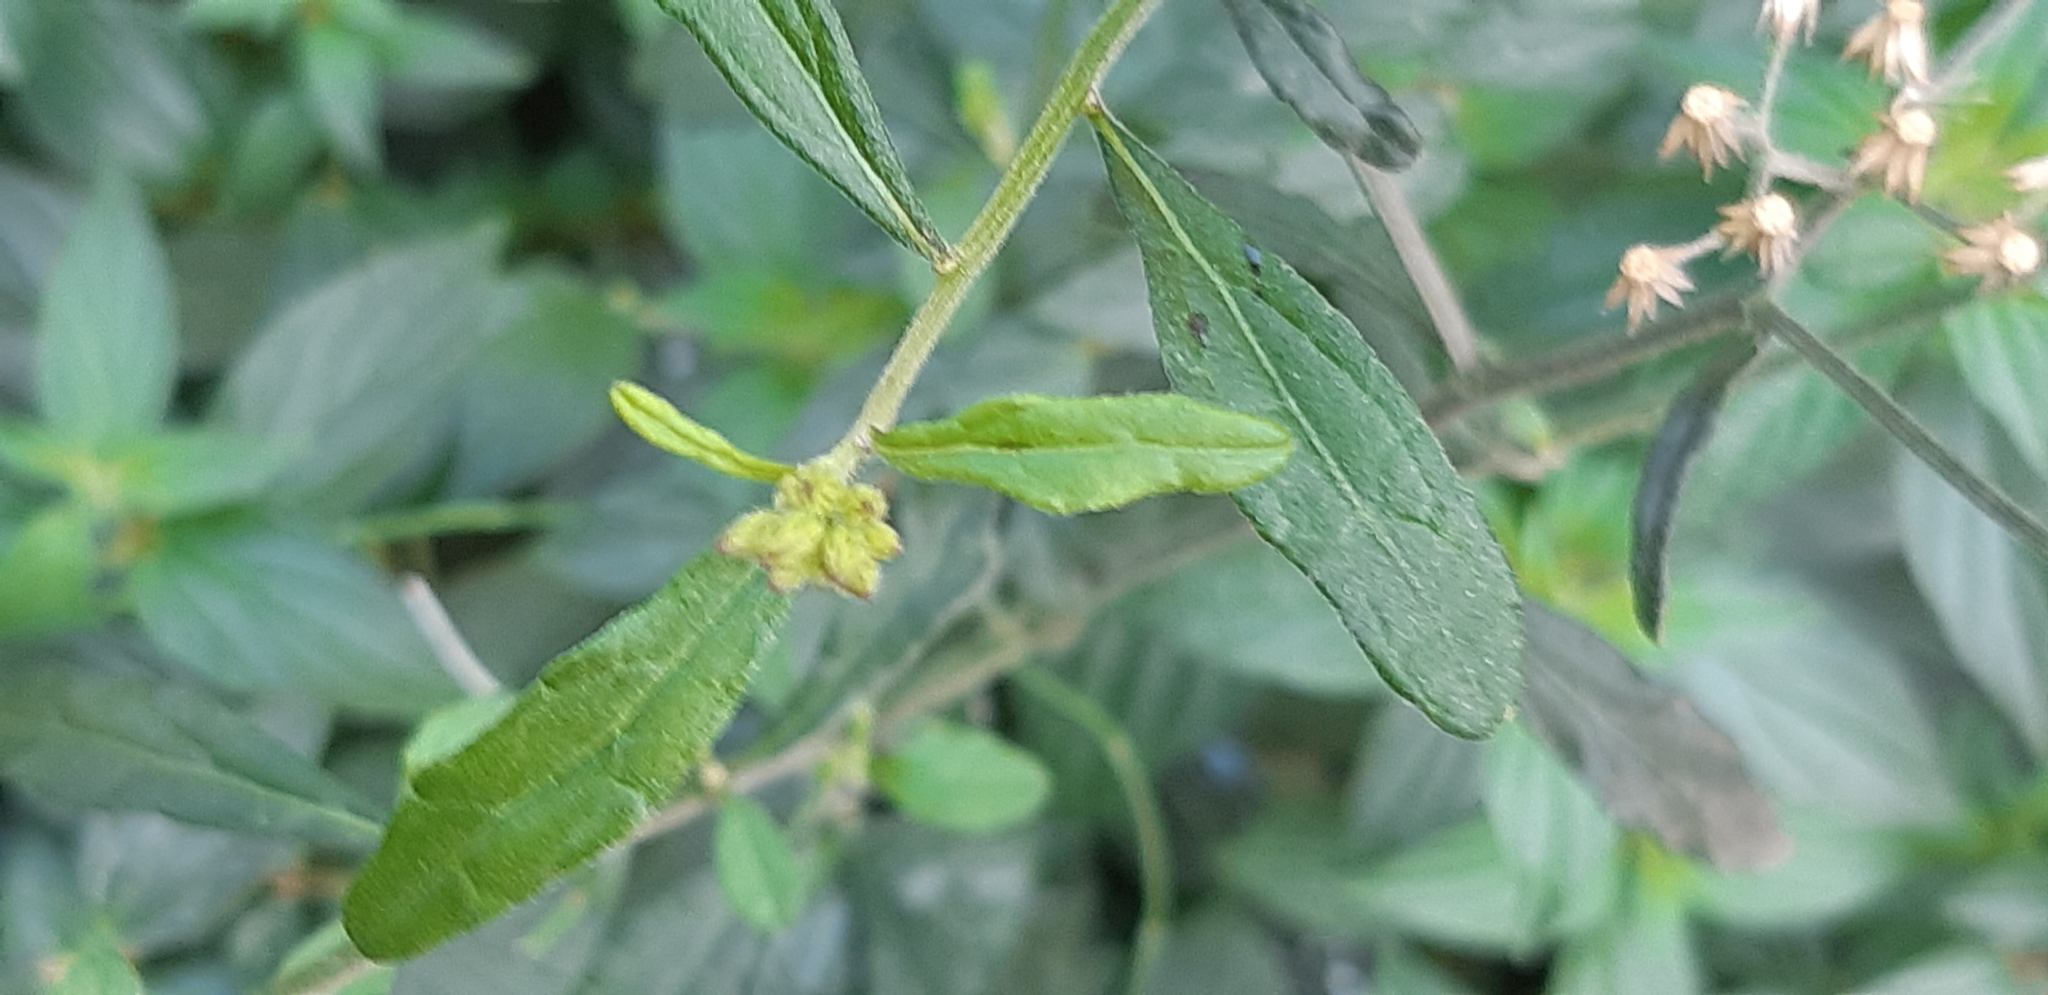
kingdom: Plantae
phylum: Tracheophyta
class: Magnoliopsida
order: Asterales
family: Asteraceae
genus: Cyanthillium
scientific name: Cyanthillium cinereum
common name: Little ironweed
